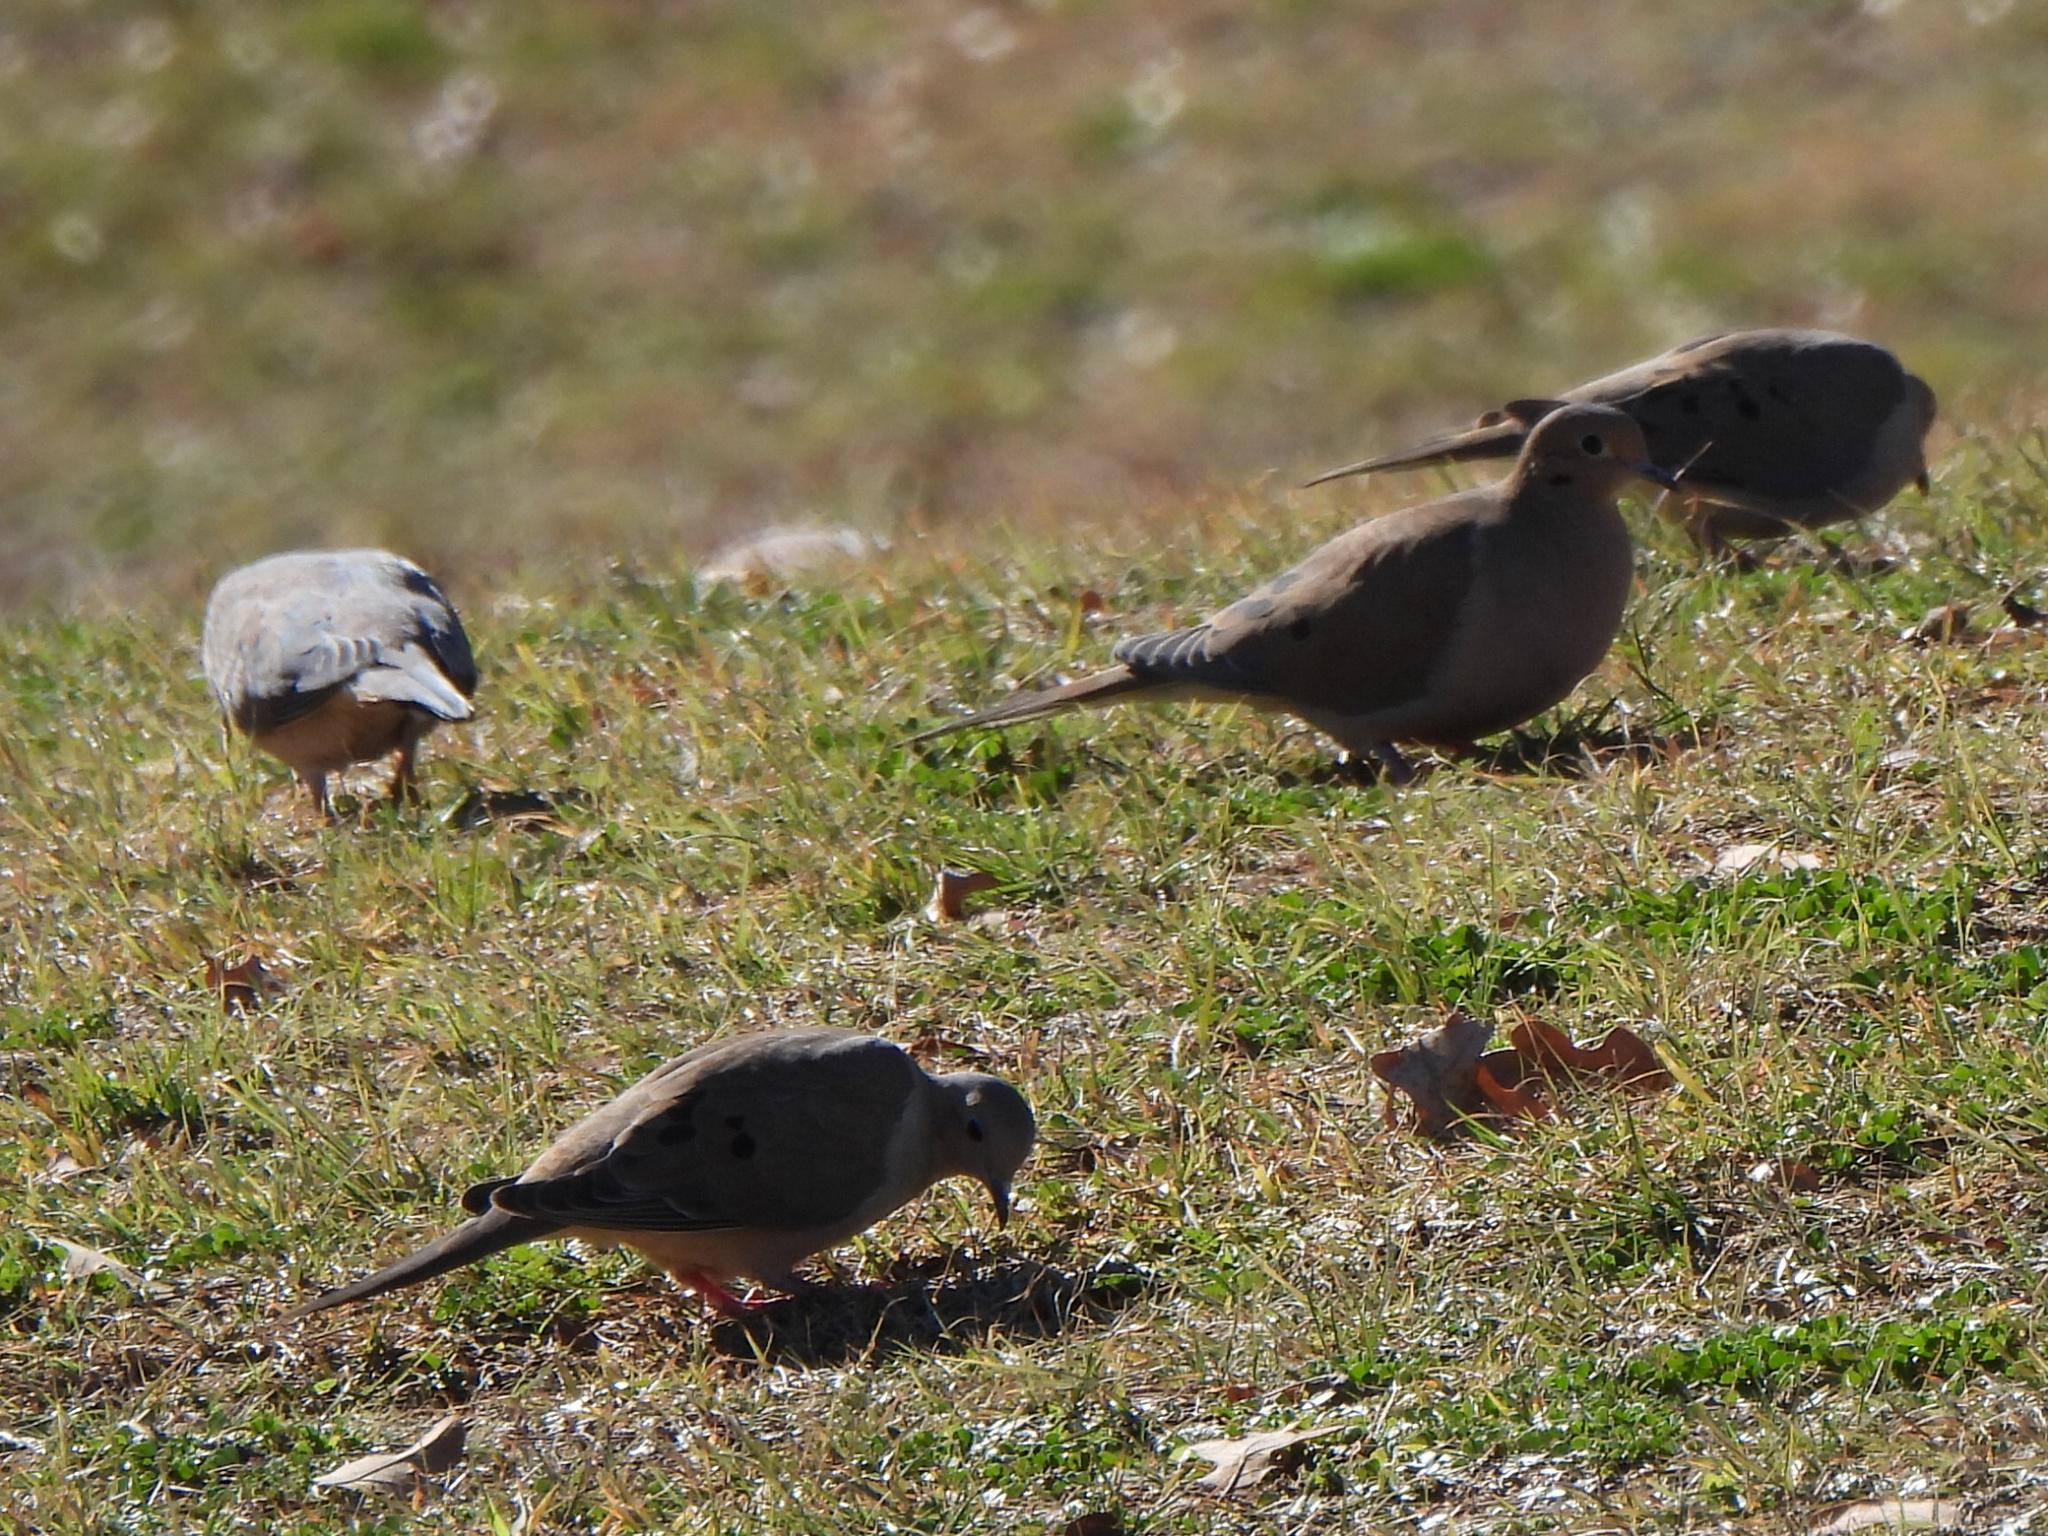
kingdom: Animalia
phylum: Chordata
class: Aves
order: Columbiformes
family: Columbidae
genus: Zenaida
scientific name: Zenaida macroura
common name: Mourning dove
